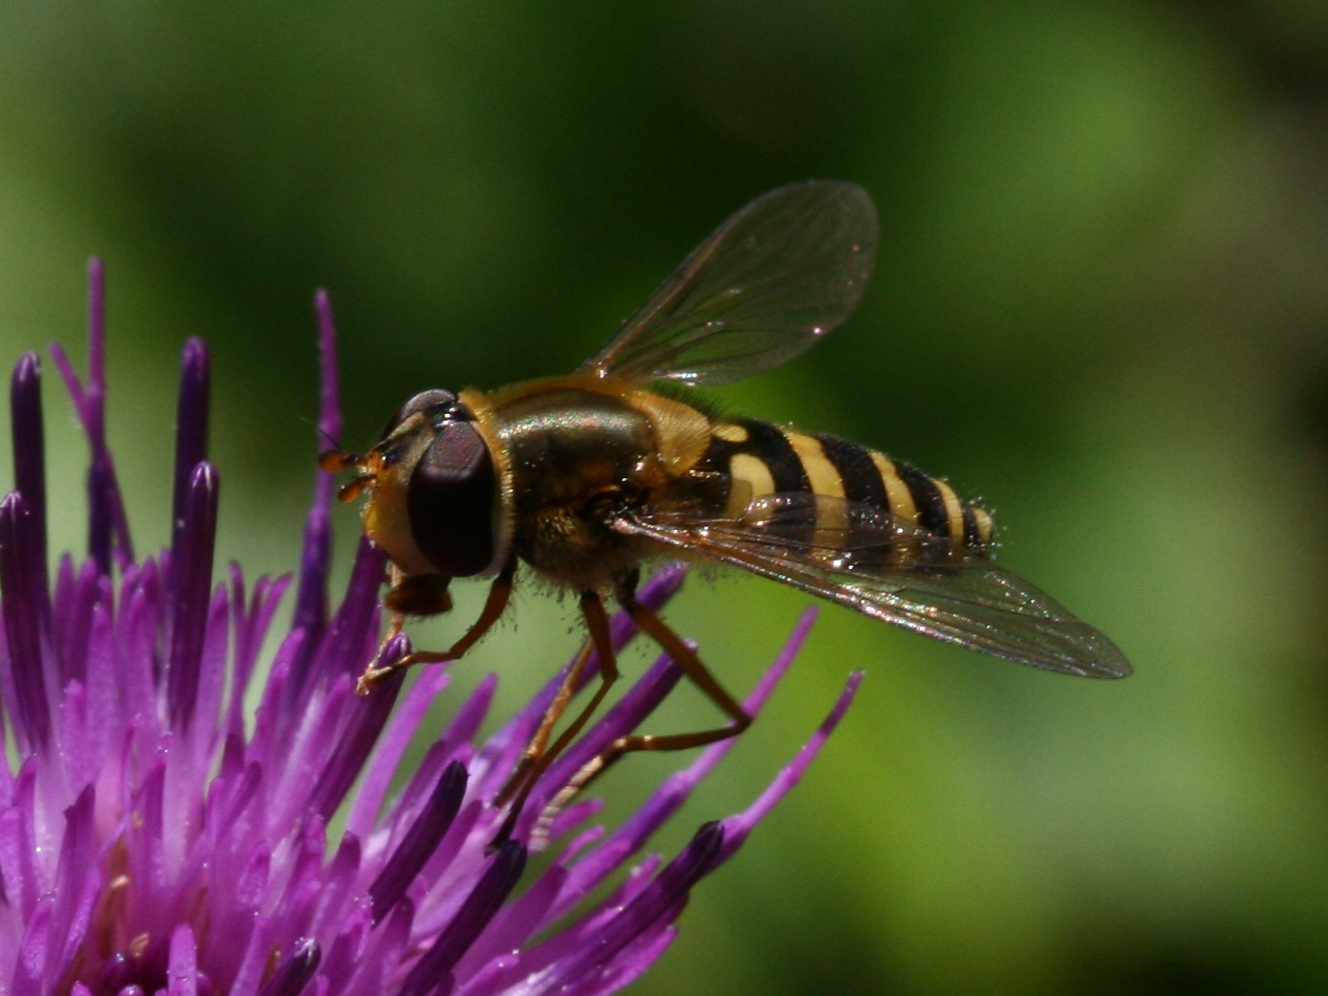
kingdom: Animalia
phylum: Arthropoda
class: Insecta
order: Diptera
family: Syrphidae
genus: Syrphus
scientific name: Syrphus ribesii
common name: Common flower fly
